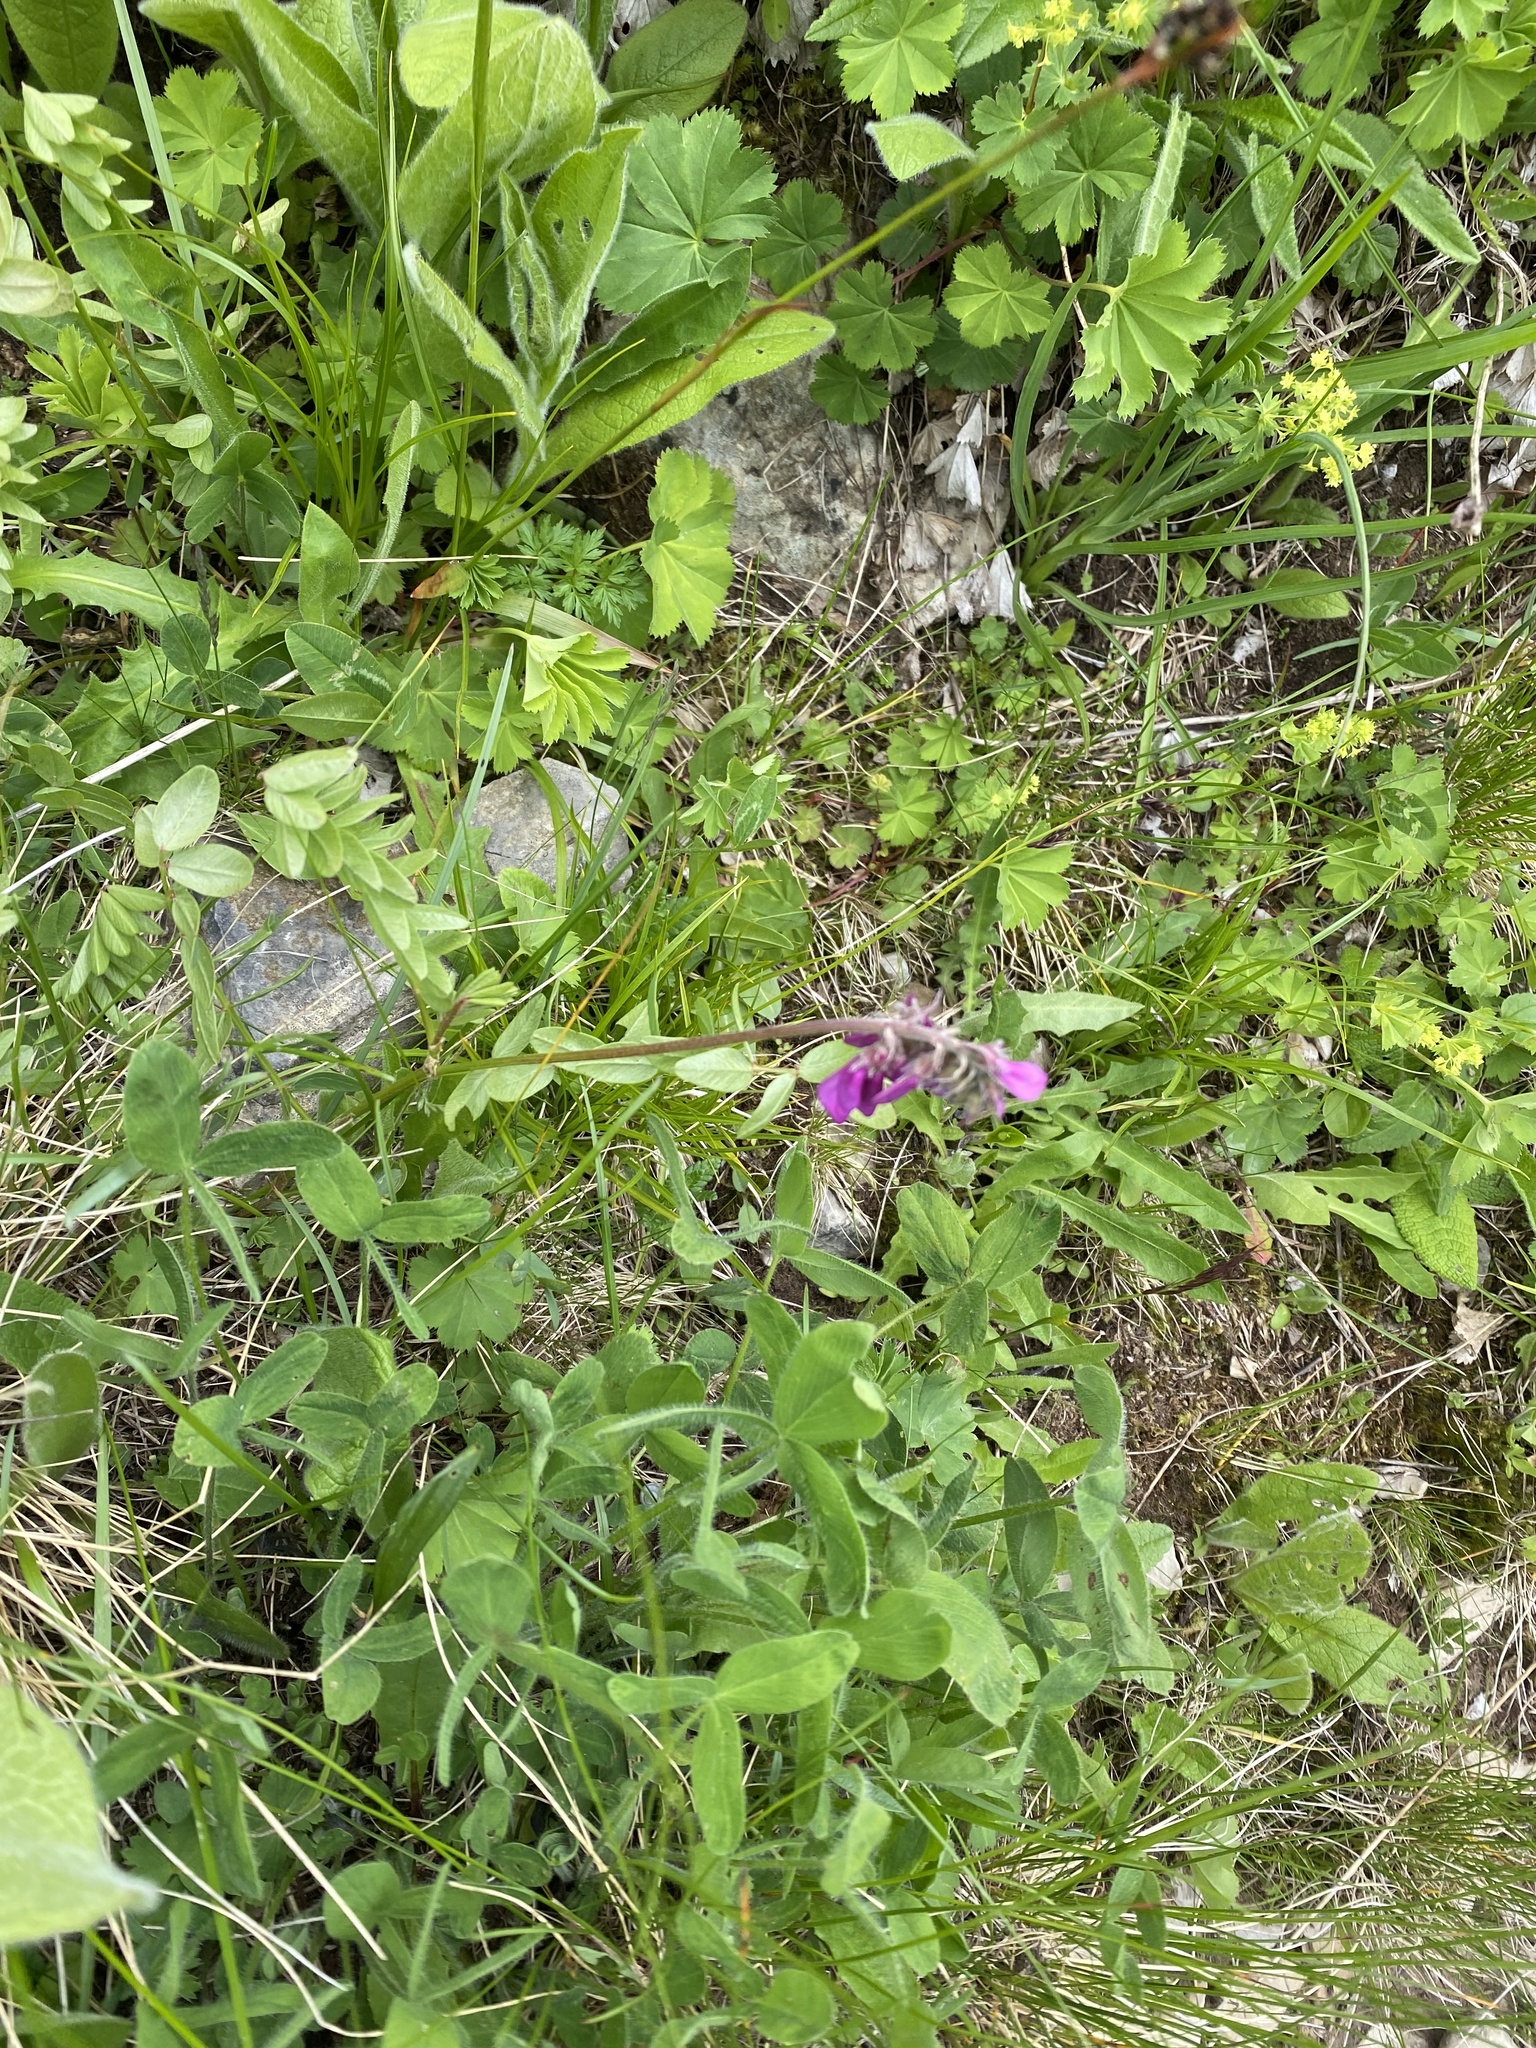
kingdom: Plantae
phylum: Tracheophyta
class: Magnoliopsida
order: Fabales
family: Fabaceae
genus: Hedysarum
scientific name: Hedysarum caucasicum
